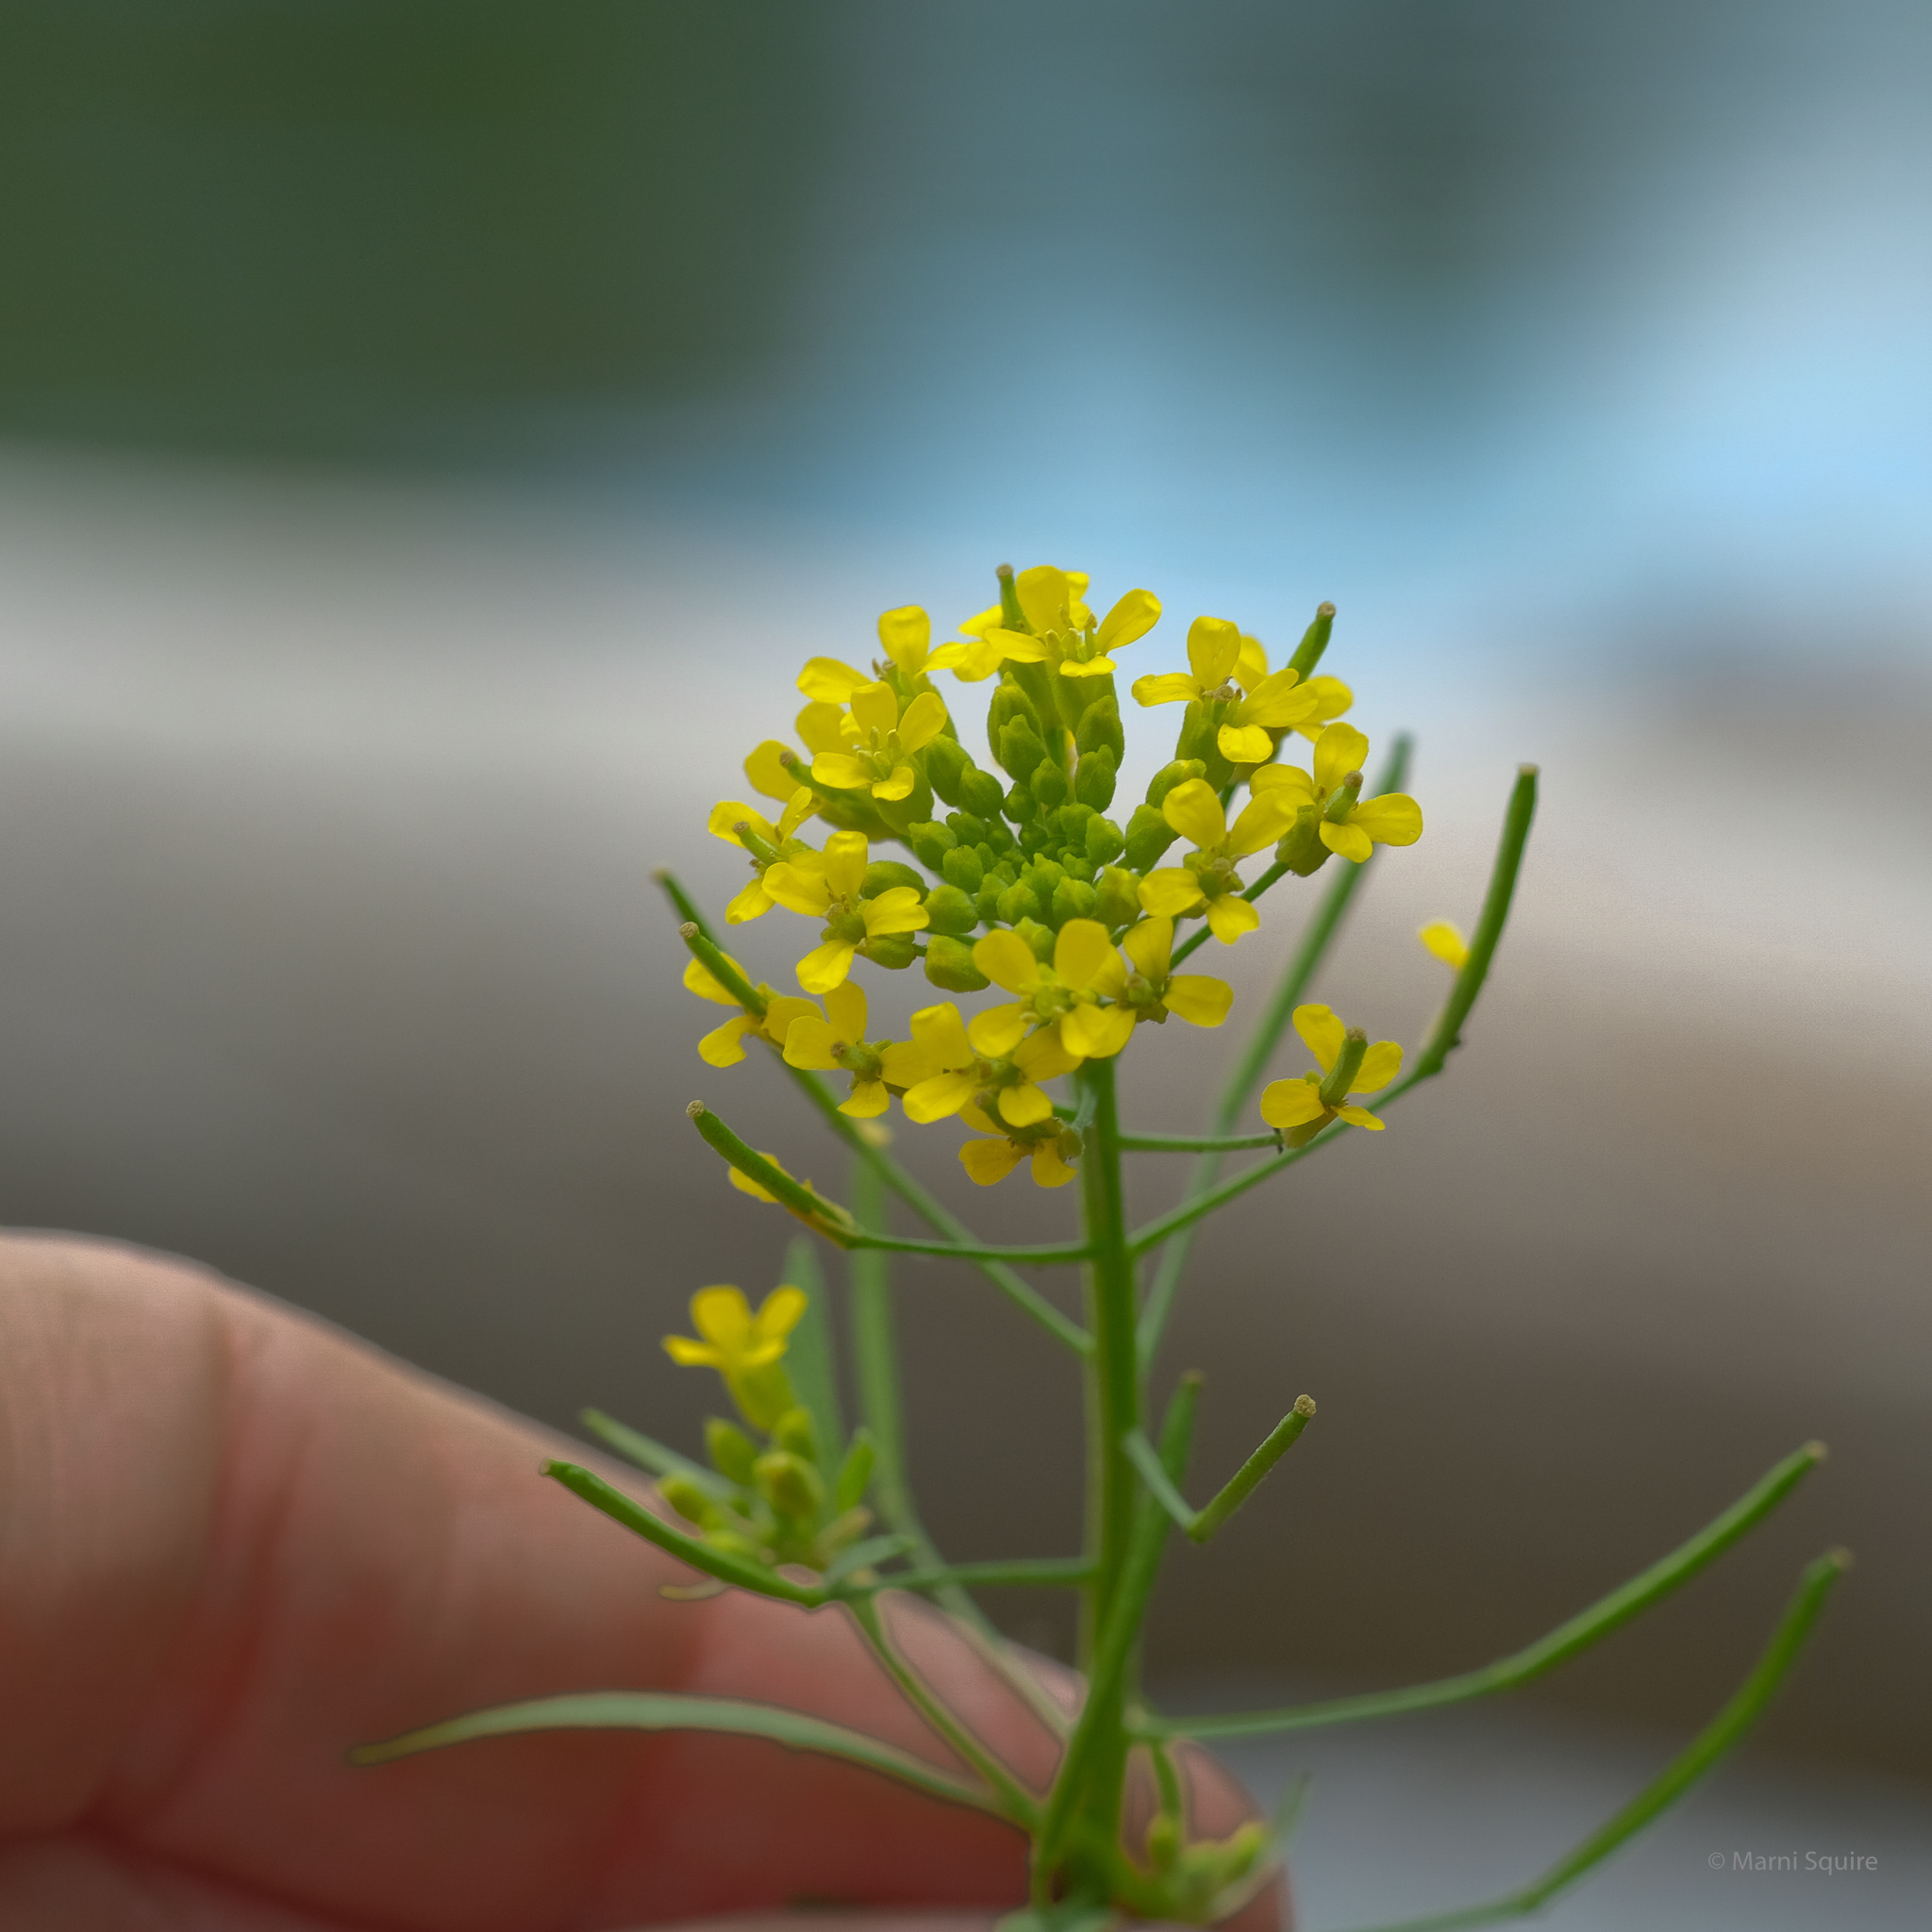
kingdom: Plantae
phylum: Tracheophyta
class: Magnoliopsida
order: Brassicales
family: Brassicaceae
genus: Erysimum
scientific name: Erysimum cheiranthoides
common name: Treacle mustard
